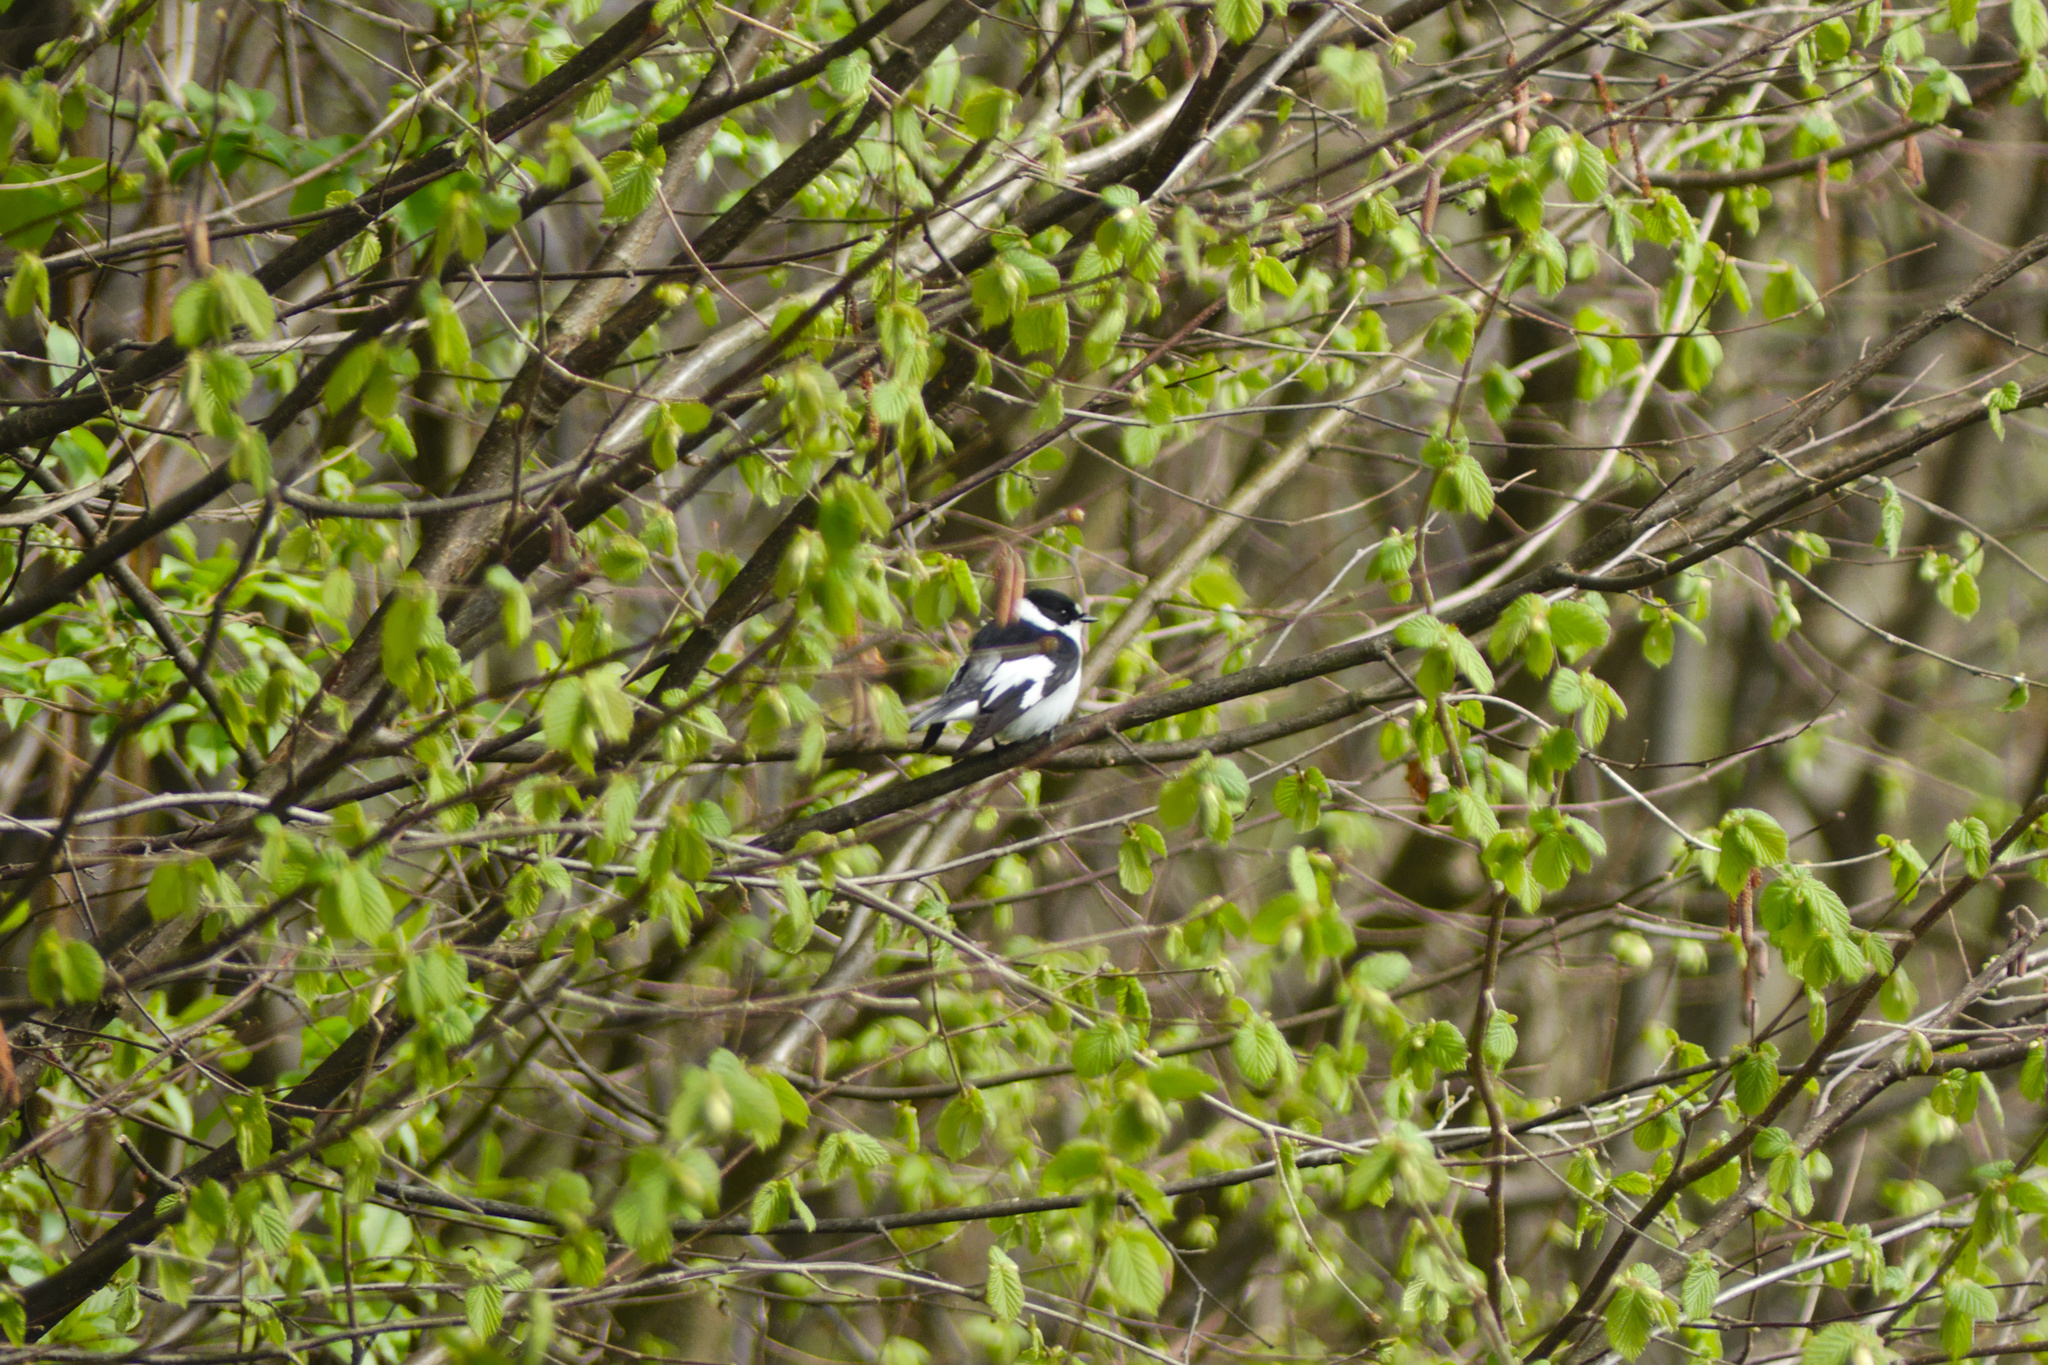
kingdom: Animalia
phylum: Chordata
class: Aves
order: Passeriformes
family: Muscicapidae
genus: Ficedula
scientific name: Ficedula albicollis
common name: Collared flycatcher
